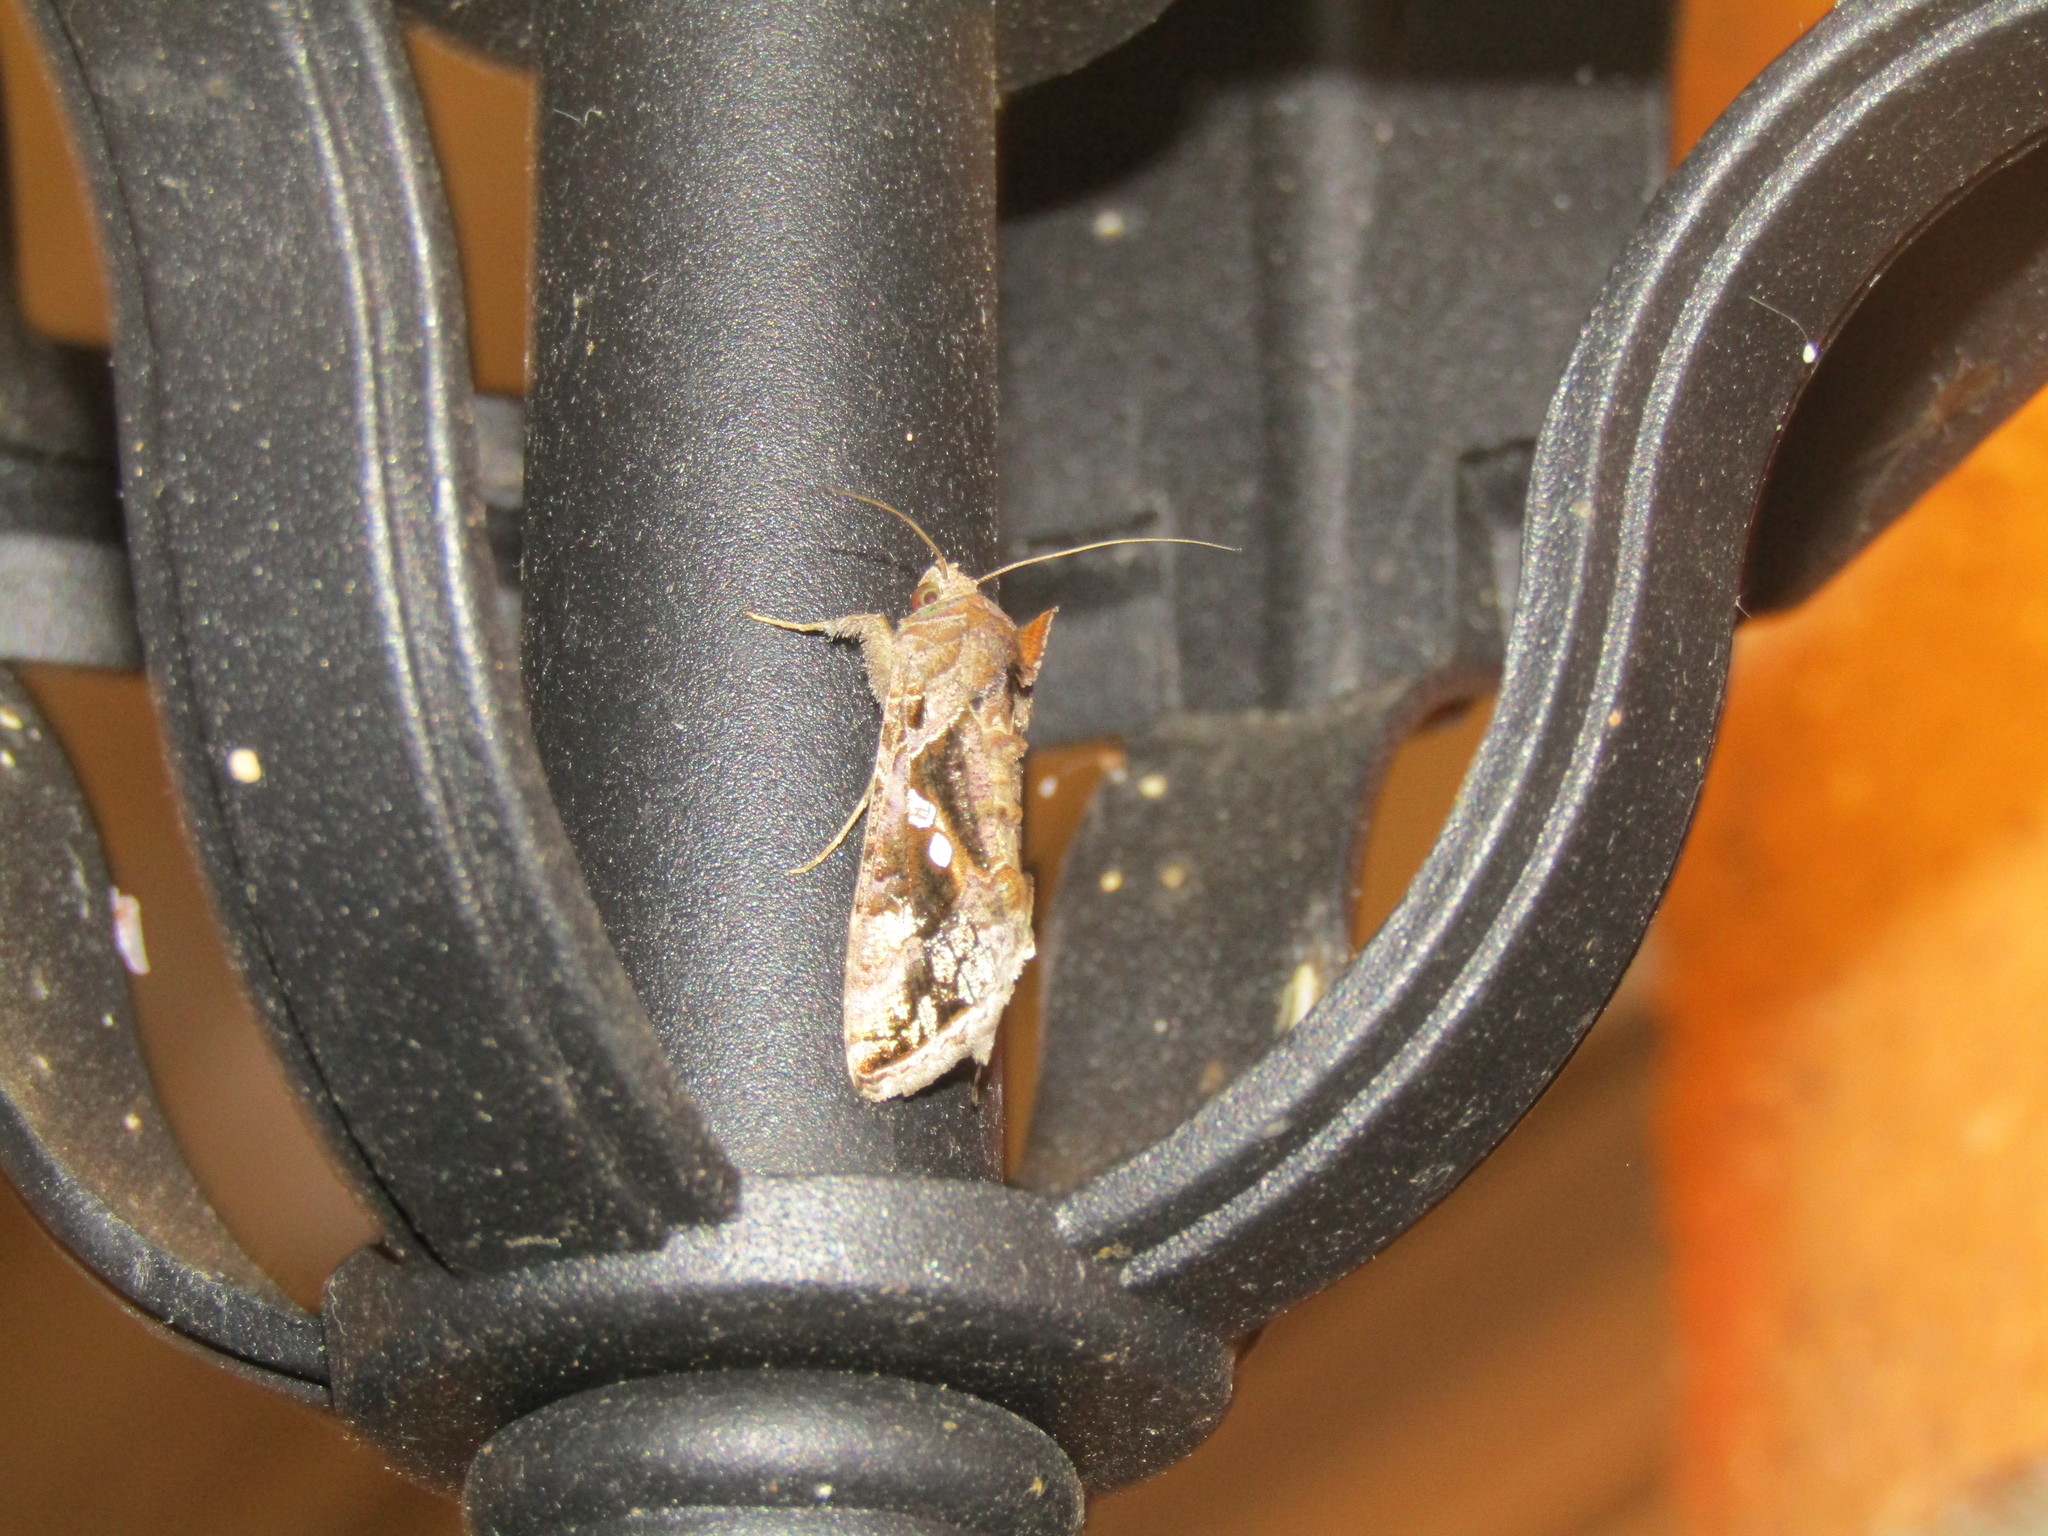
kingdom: Animalia
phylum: Arthropoda
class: Insecta
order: Lepidoptera
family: Noctuidae
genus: Chrysodeixis
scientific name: Chrysodeixis includens
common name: Cutworm moth
